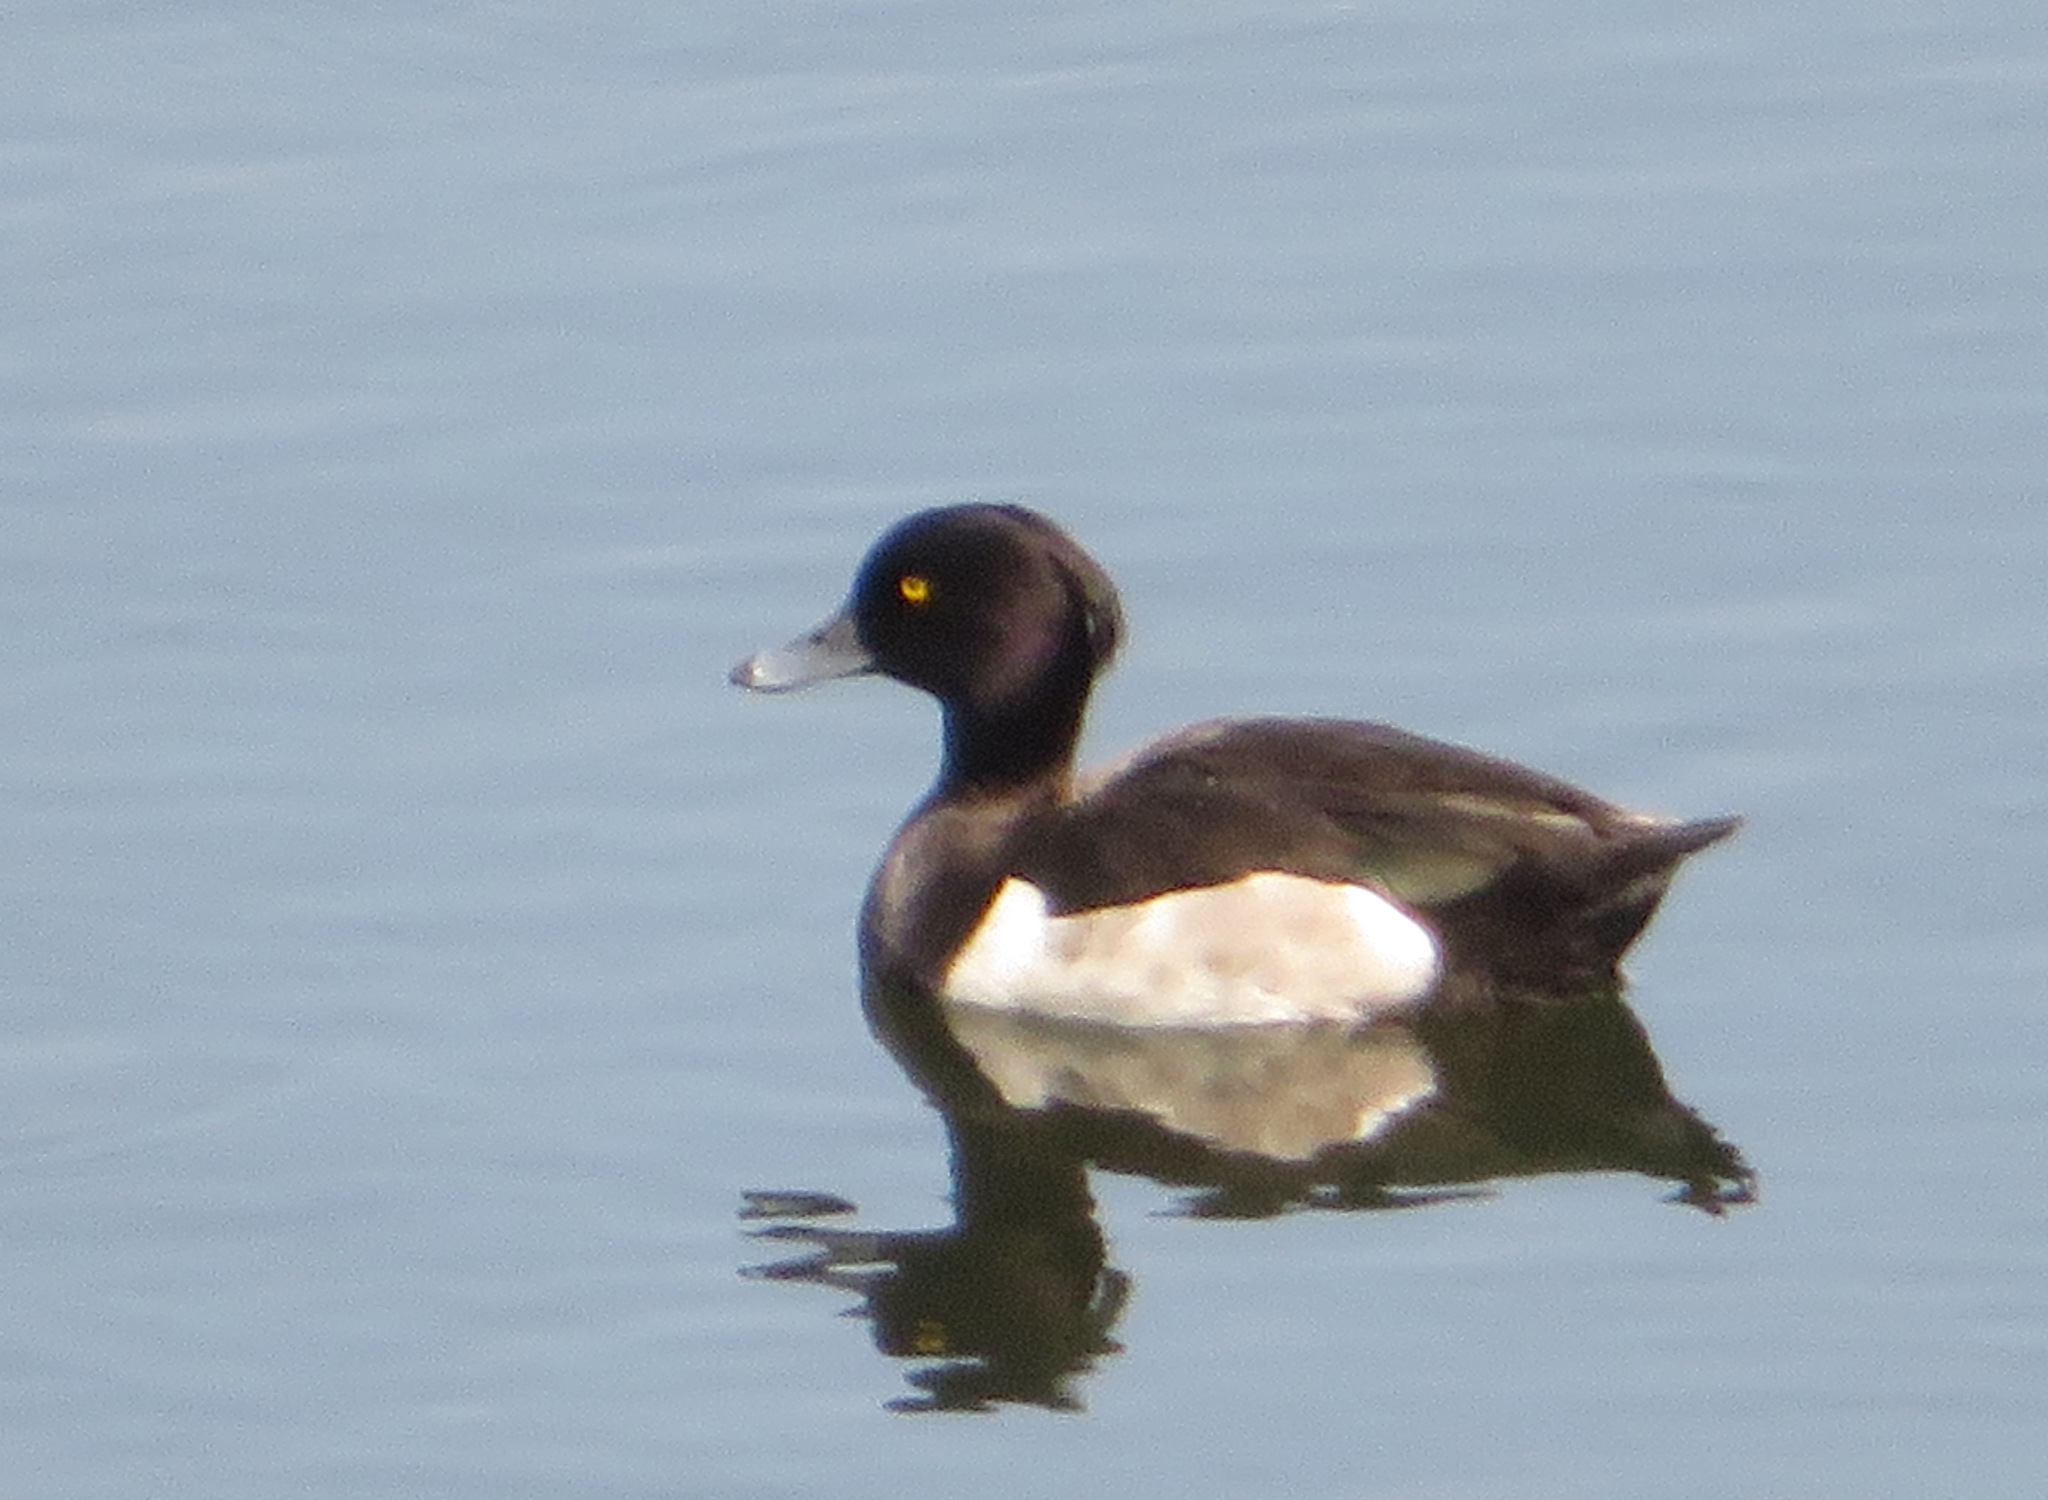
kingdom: Animalia
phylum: Chordata
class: Aves
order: Anseriformes
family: Anatidae
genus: Aythya
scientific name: Aythya fuligula
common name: Tufted duck
